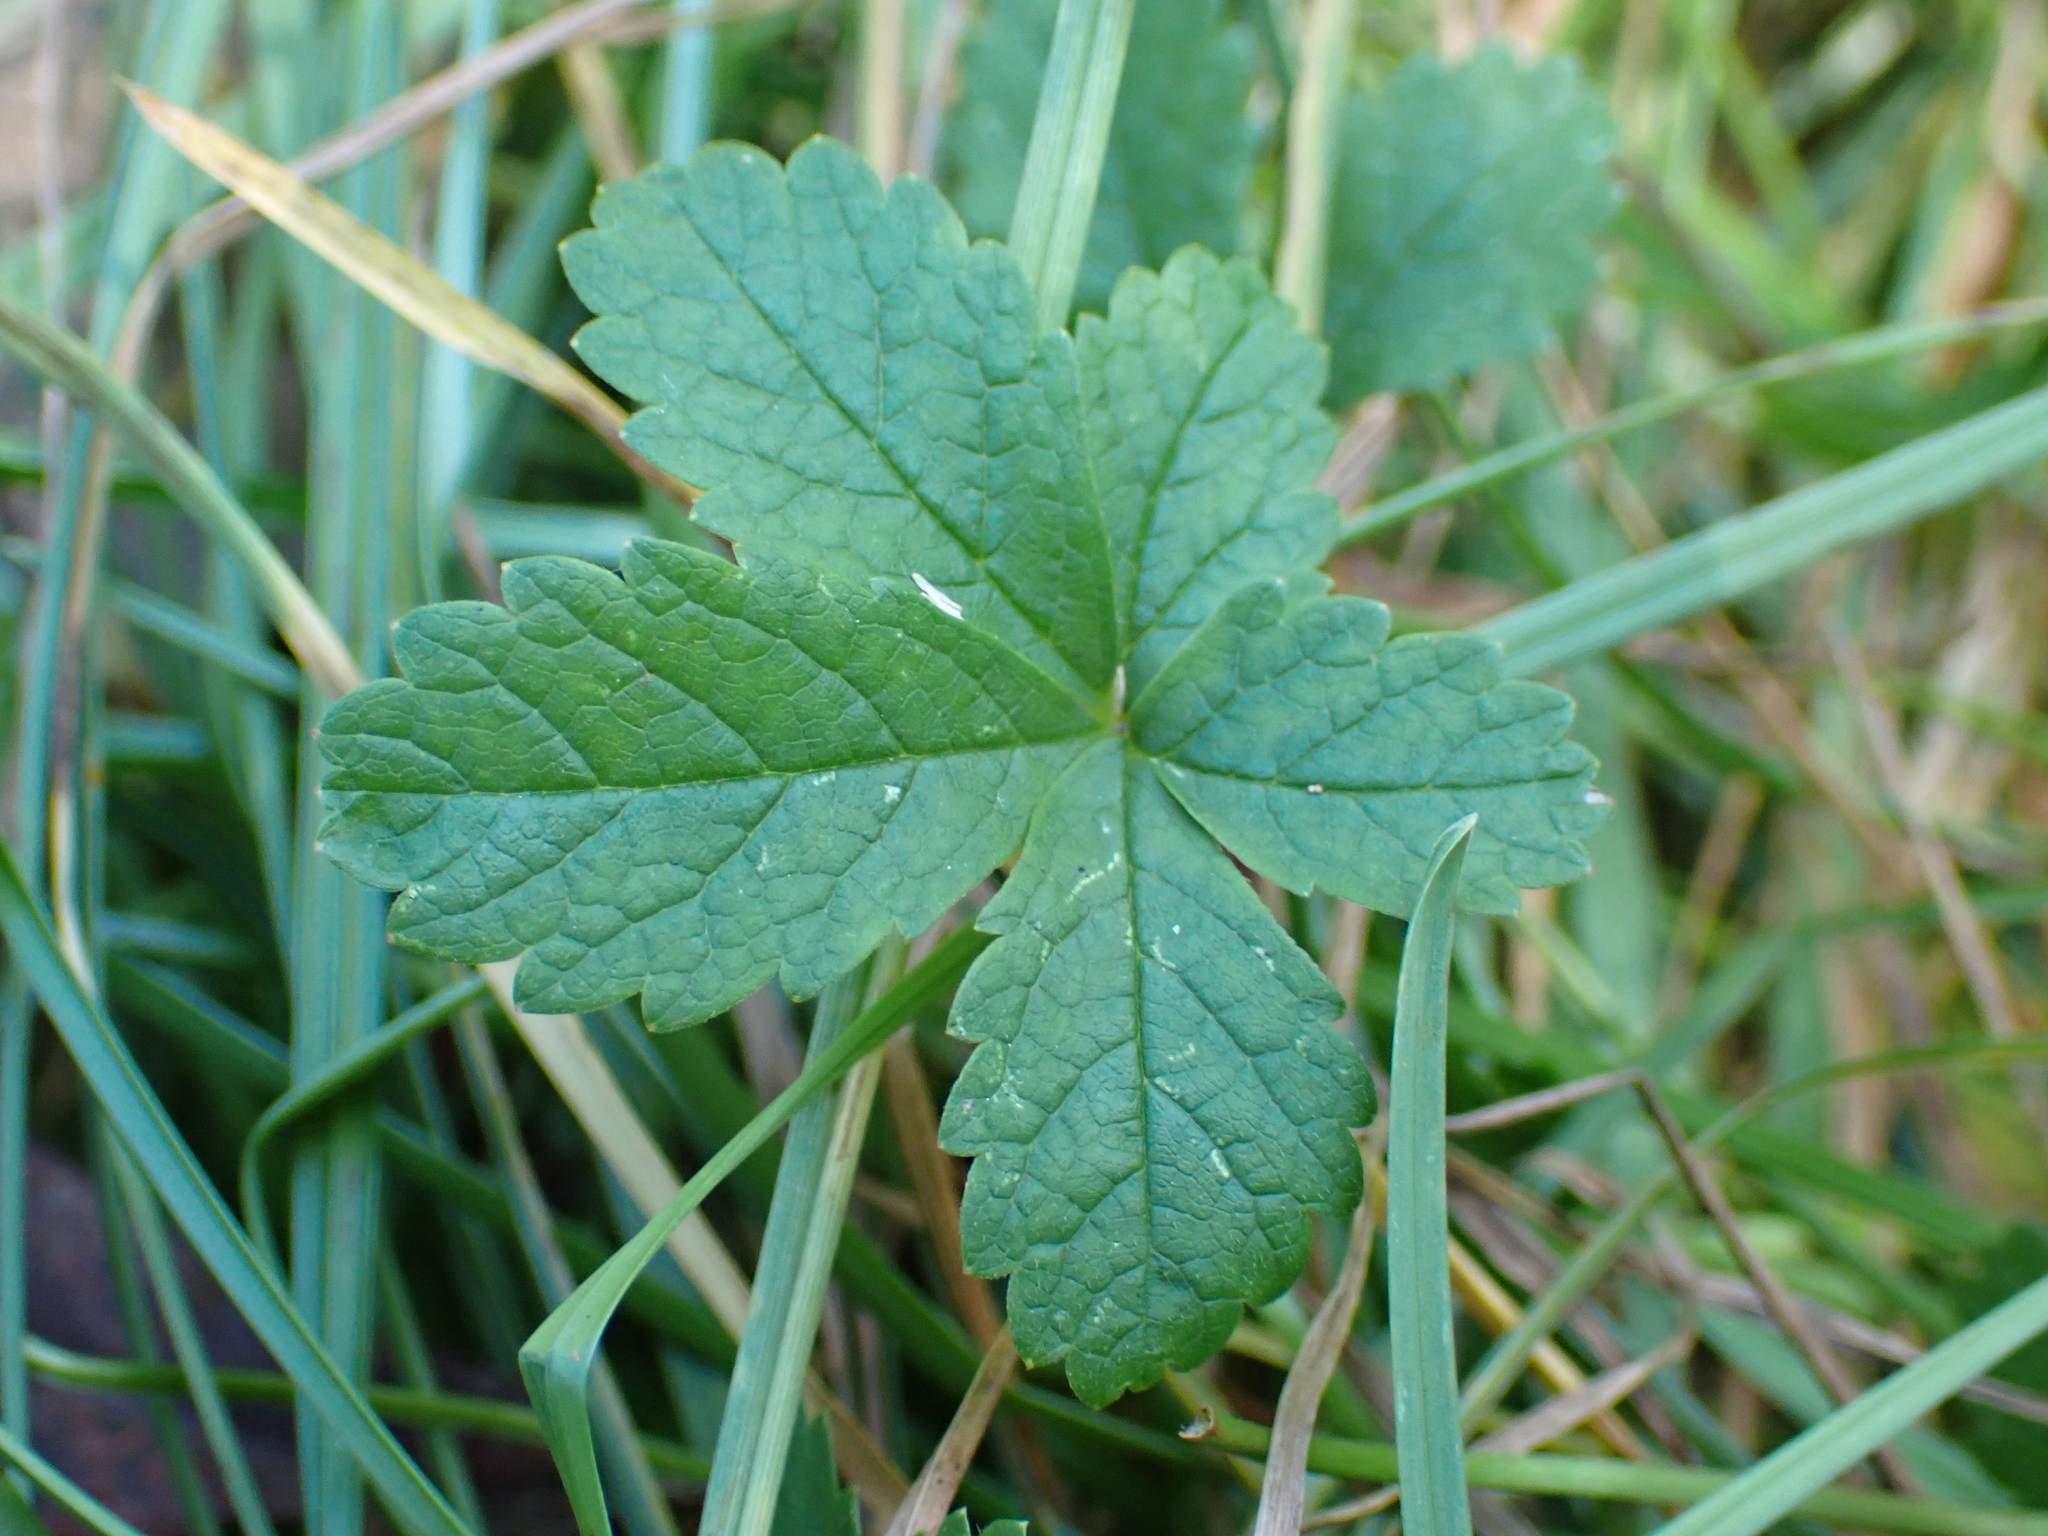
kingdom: Plantae
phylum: Tracheophyta
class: Magnoliopsida
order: Rosales
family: Rosaceae
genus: Potentilla
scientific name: Potentilla reptans
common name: Creeping cinquefoil
